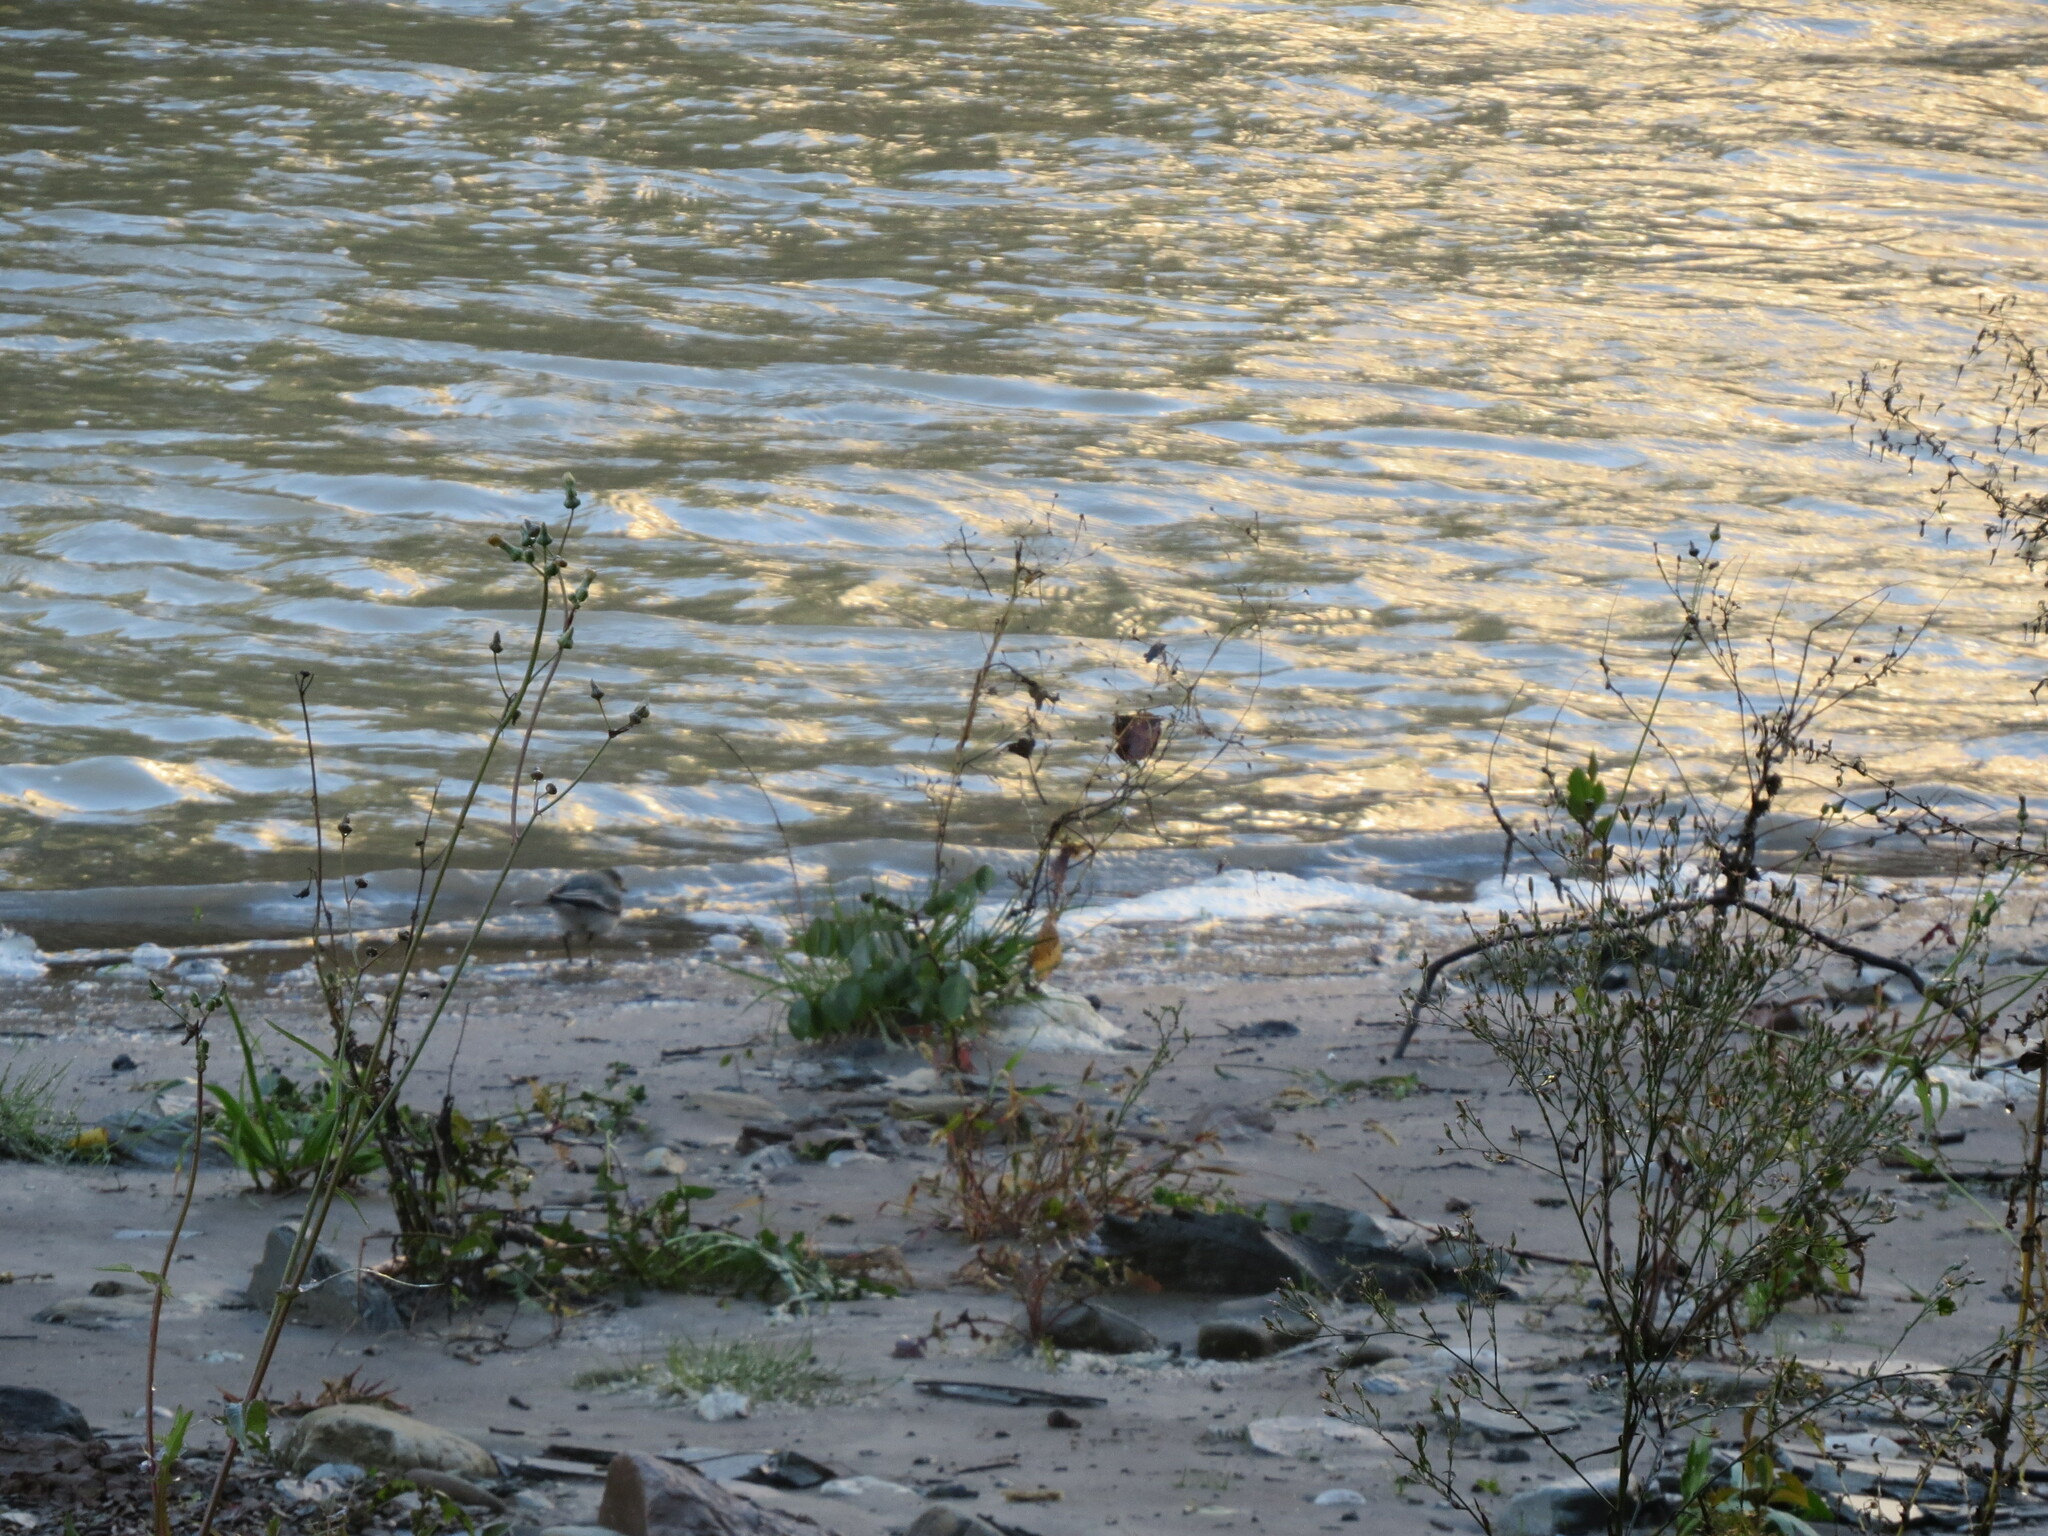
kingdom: Animalia
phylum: Chordata
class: Aves
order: Passeriformes
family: Motacillidae
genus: Motacilla
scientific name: Motacilla alba
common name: White wagtail
